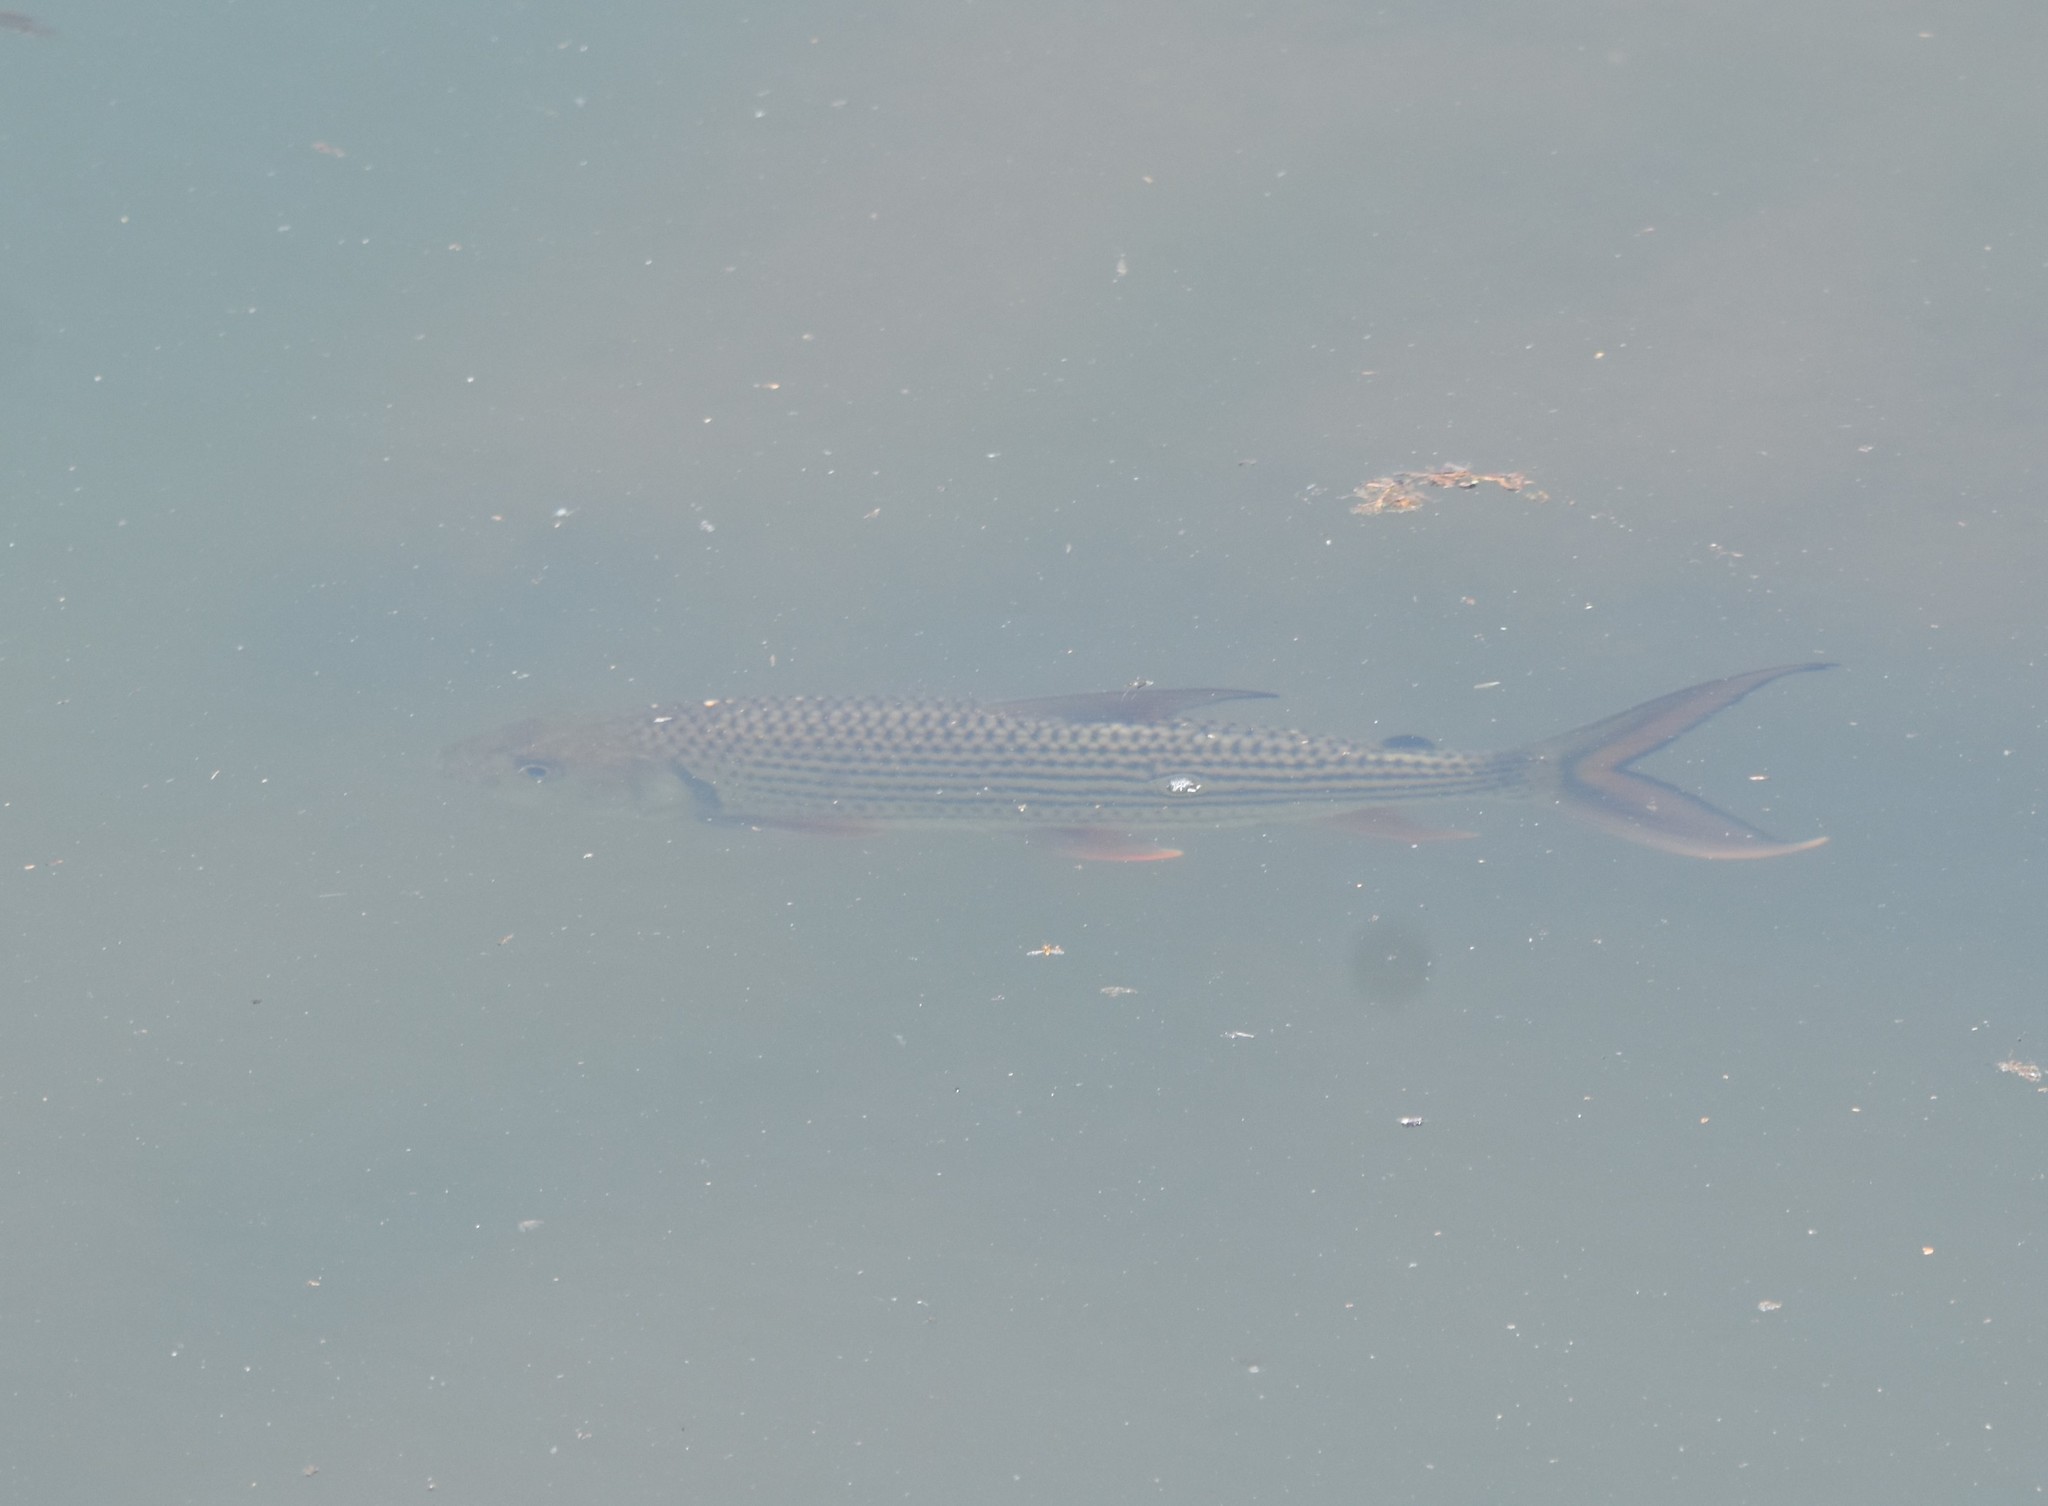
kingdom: Animalia
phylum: Chordata
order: Characiformes
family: Alestidae
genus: Hydrocynus
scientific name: Hydrocynus vittatus
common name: Tigerfish
